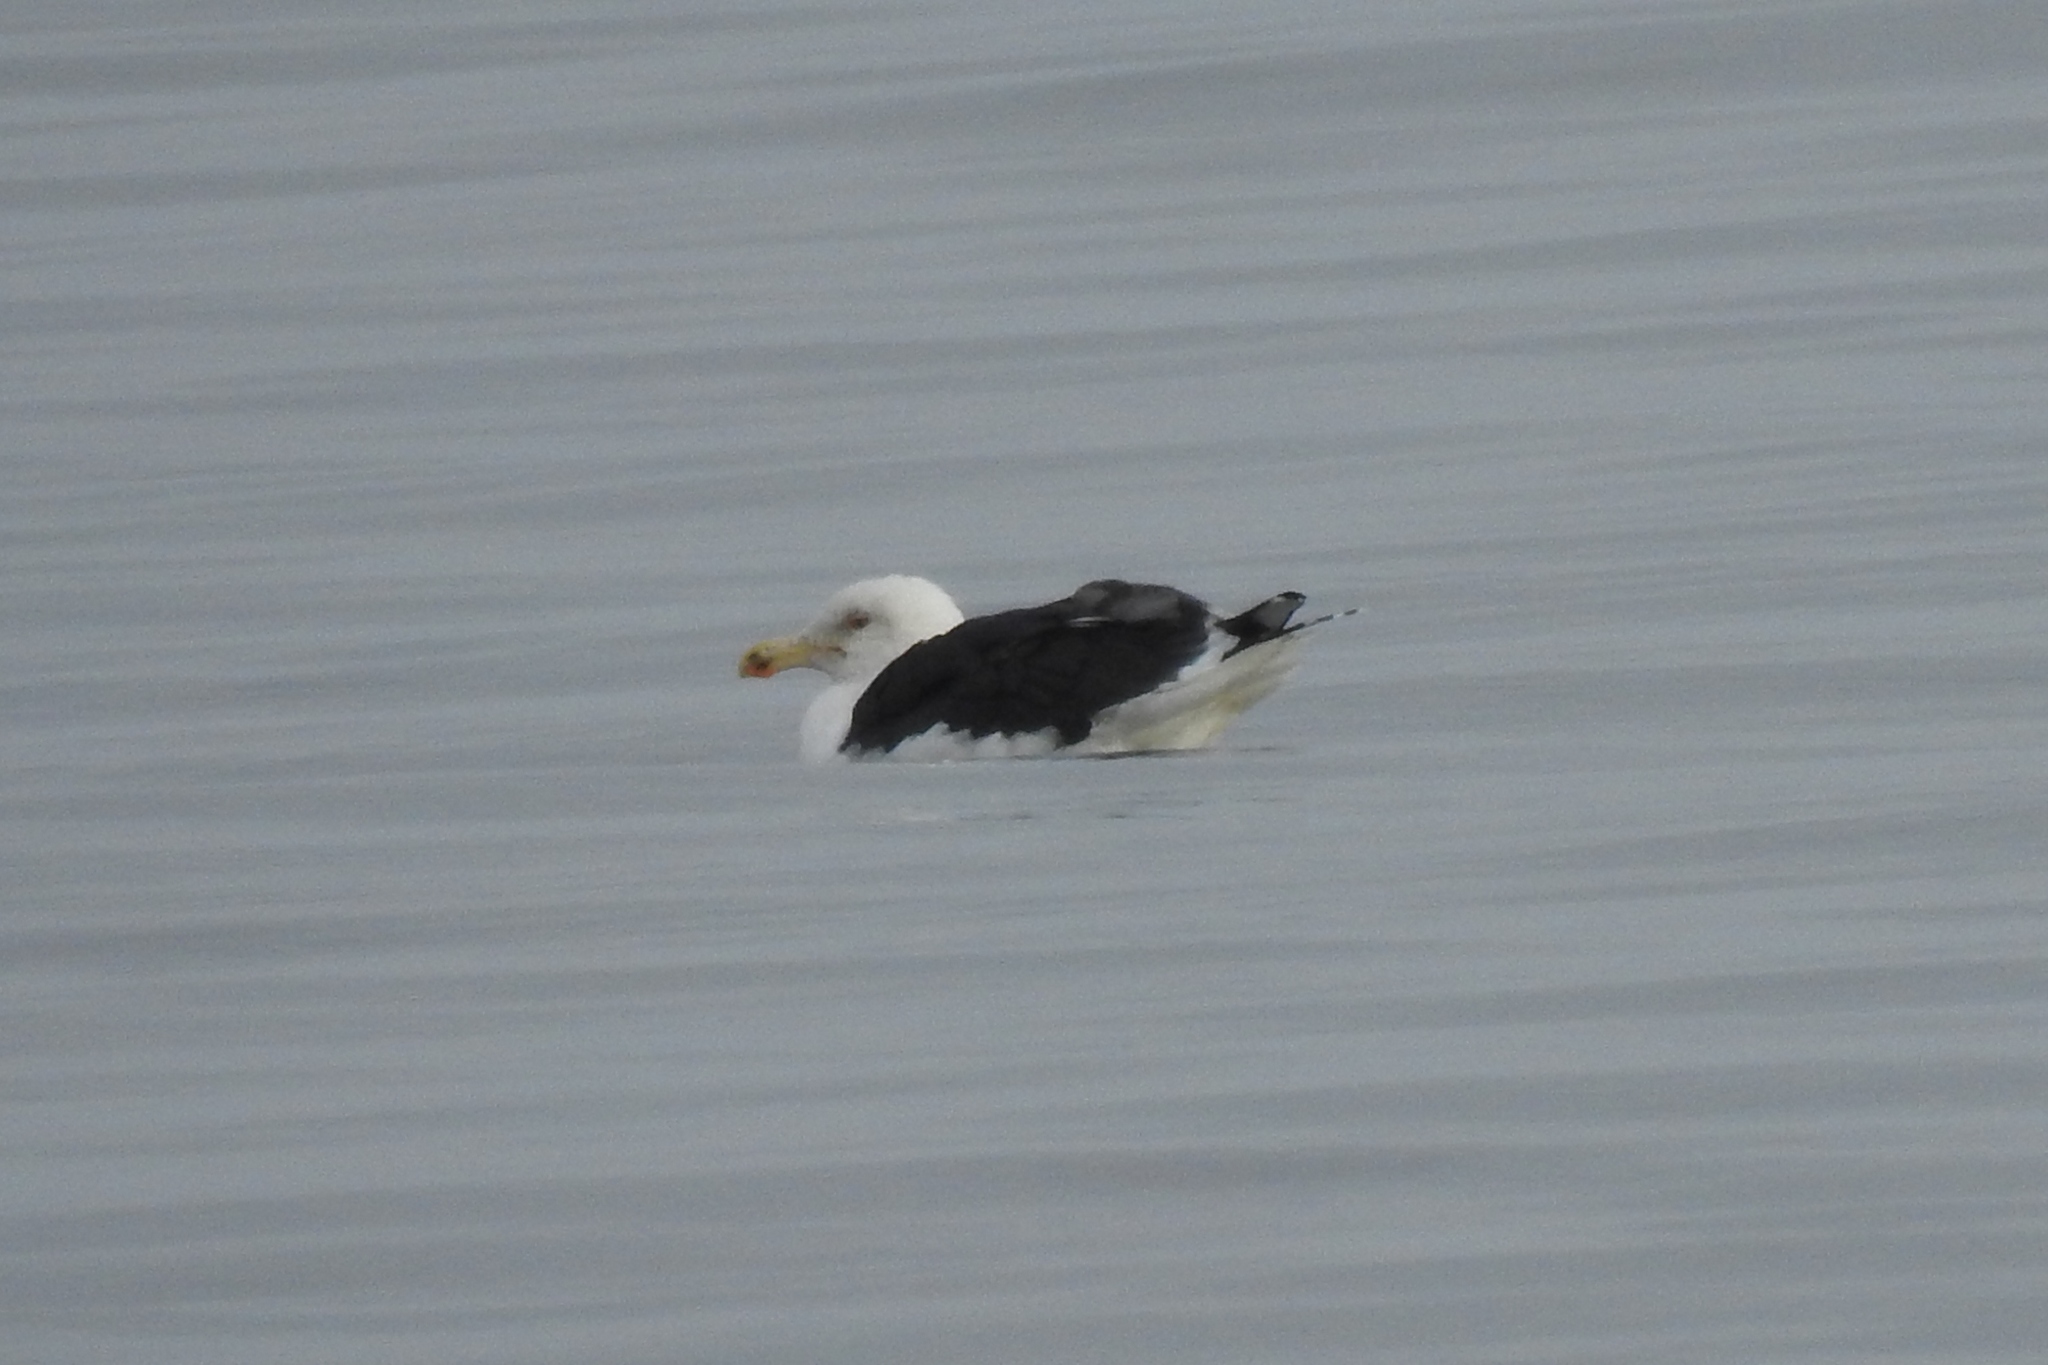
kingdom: Animalia
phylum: Chordata
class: Aves
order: Charadriiformes
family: Laridae
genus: Larus
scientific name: Larus marinus
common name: Great black-backed gull
